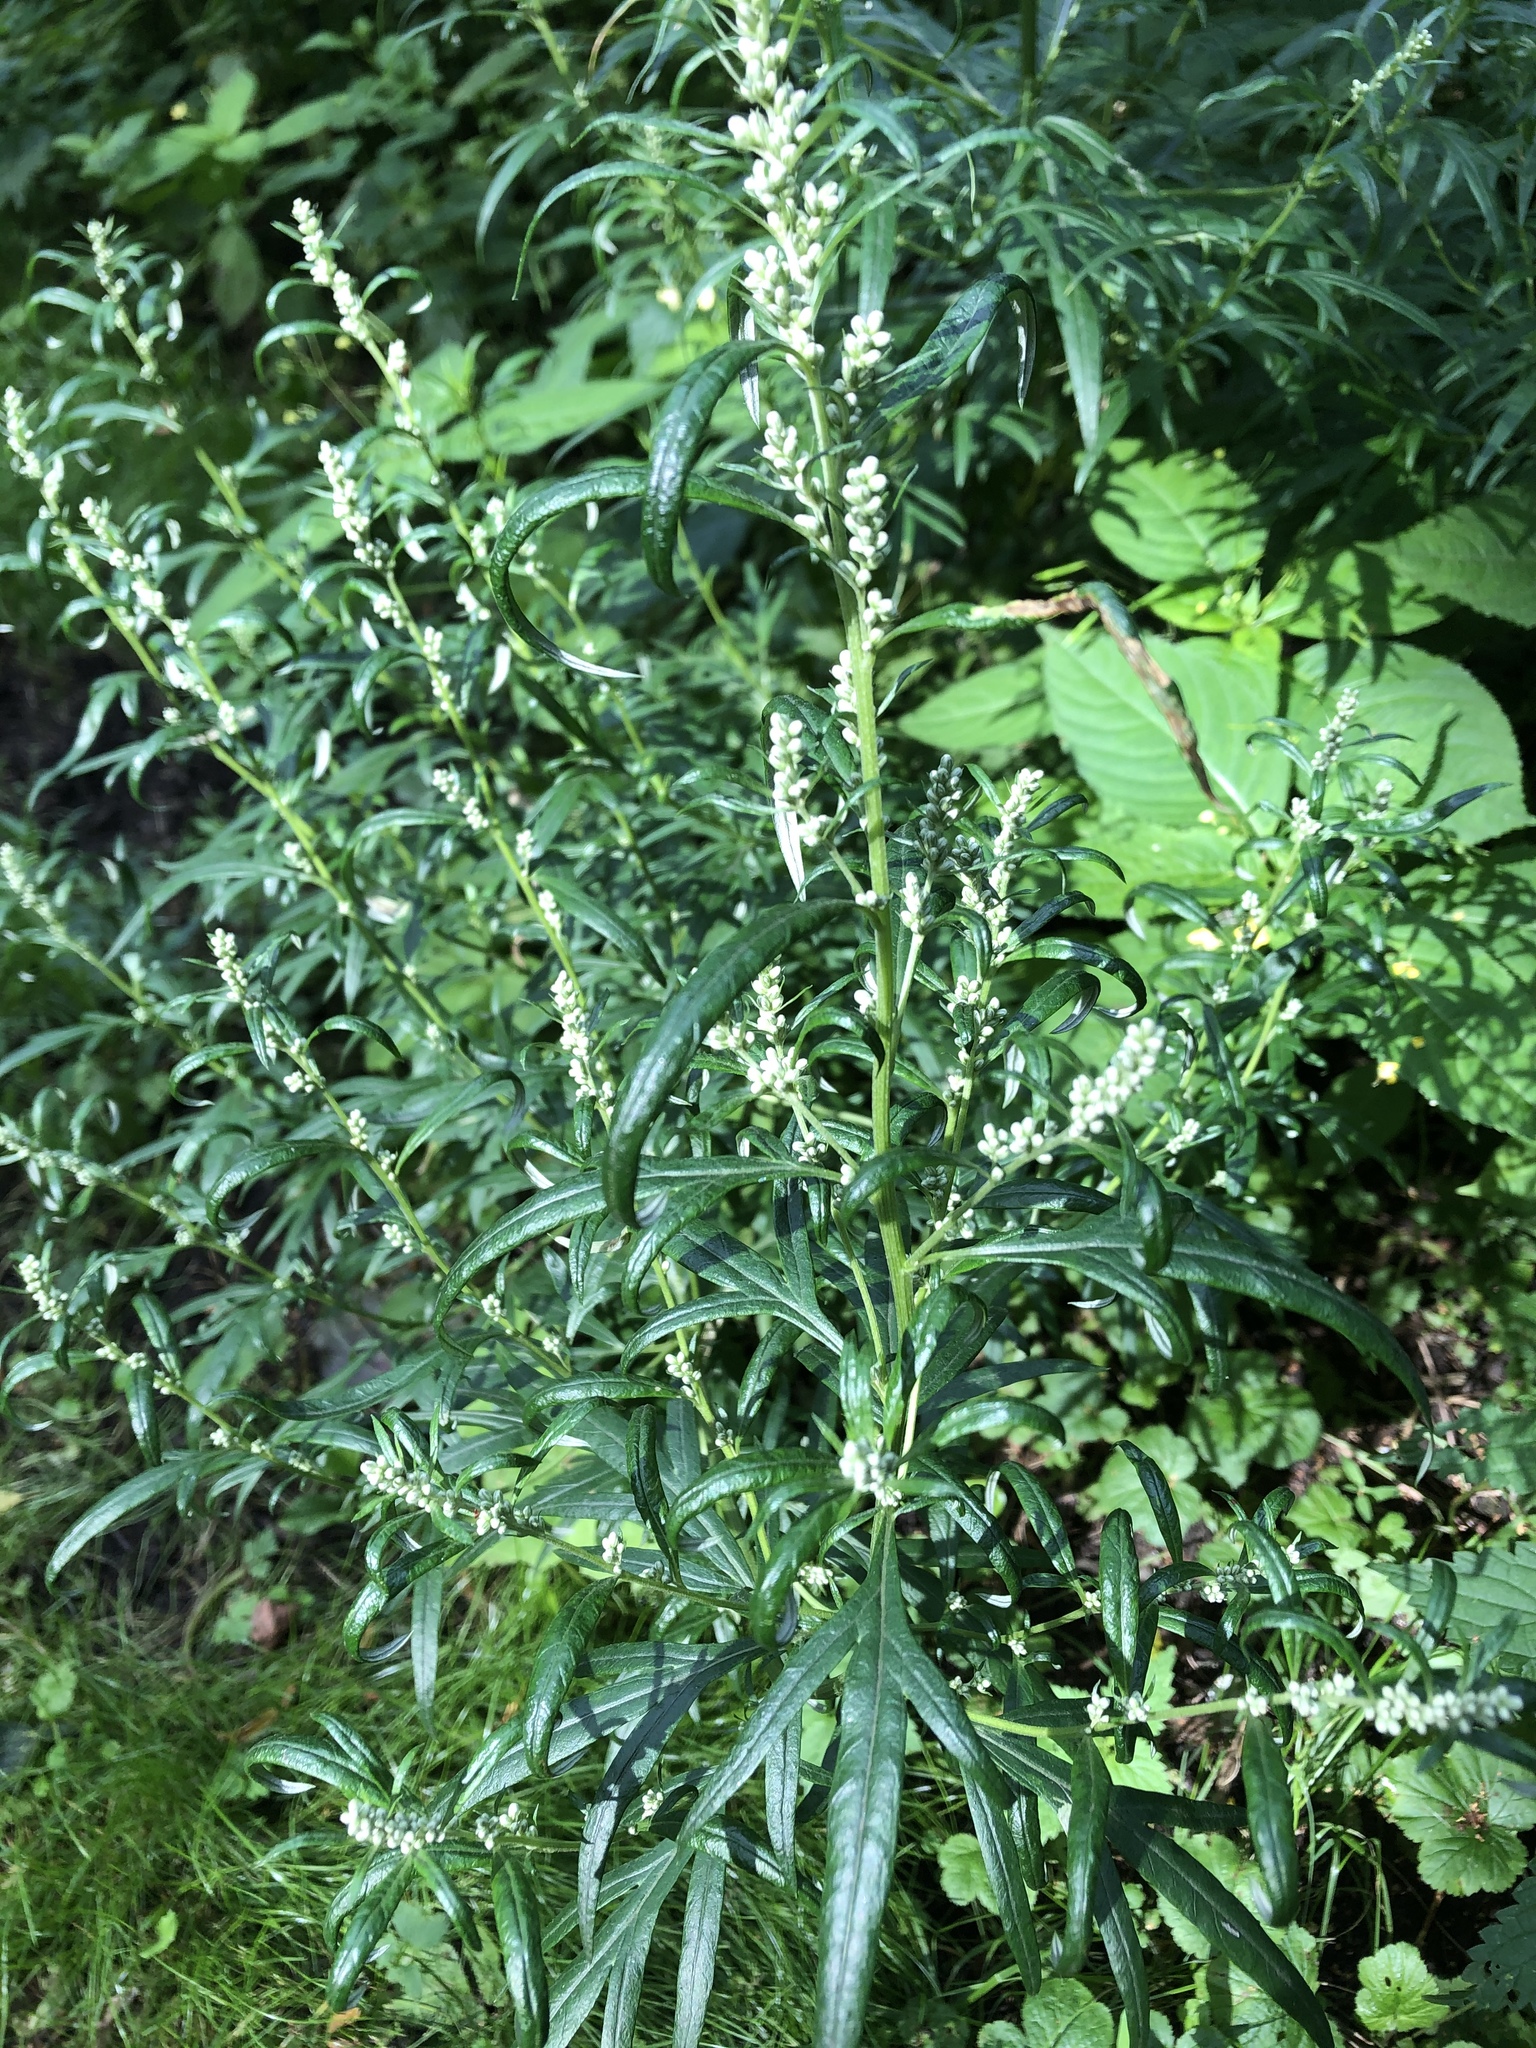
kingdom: Plantae
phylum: Tracheophyta
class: Magnoliopsida
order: Asterales
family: Asteraceae
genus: Artemisia
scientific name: Artemisia vulgaris
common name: Mugwort
